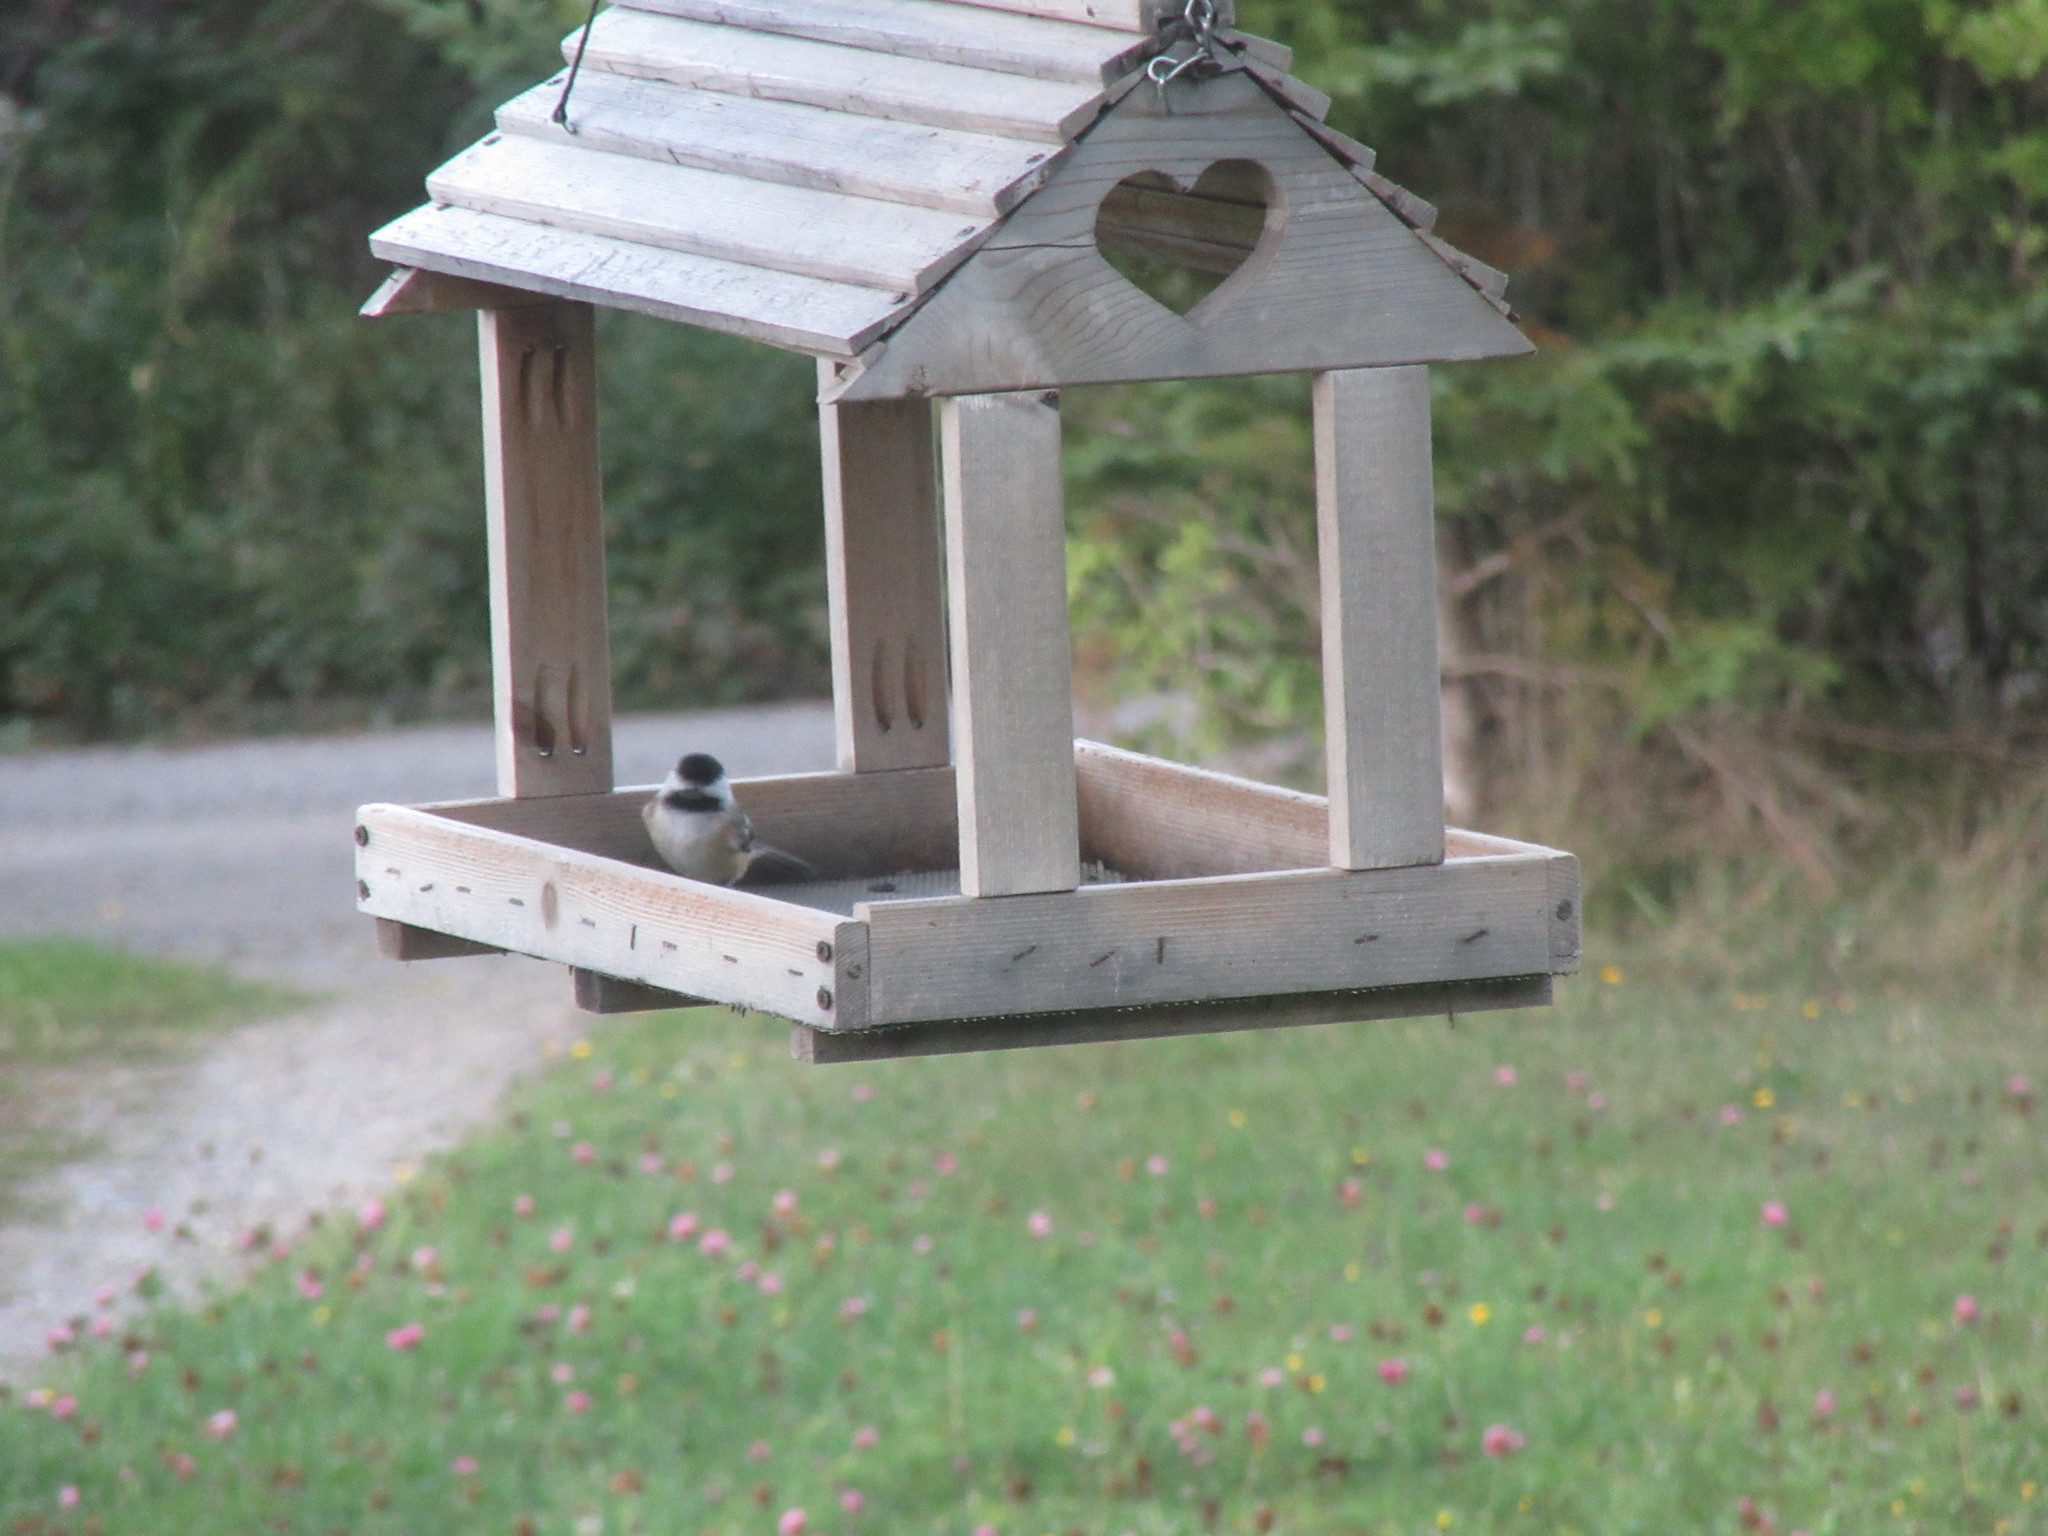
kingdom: Animalia
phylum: Chordata
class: Aves
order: Passeriformes
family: Paridae
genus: Poecile
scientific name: Poecile atricapillus
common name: Black-capped chickadee
